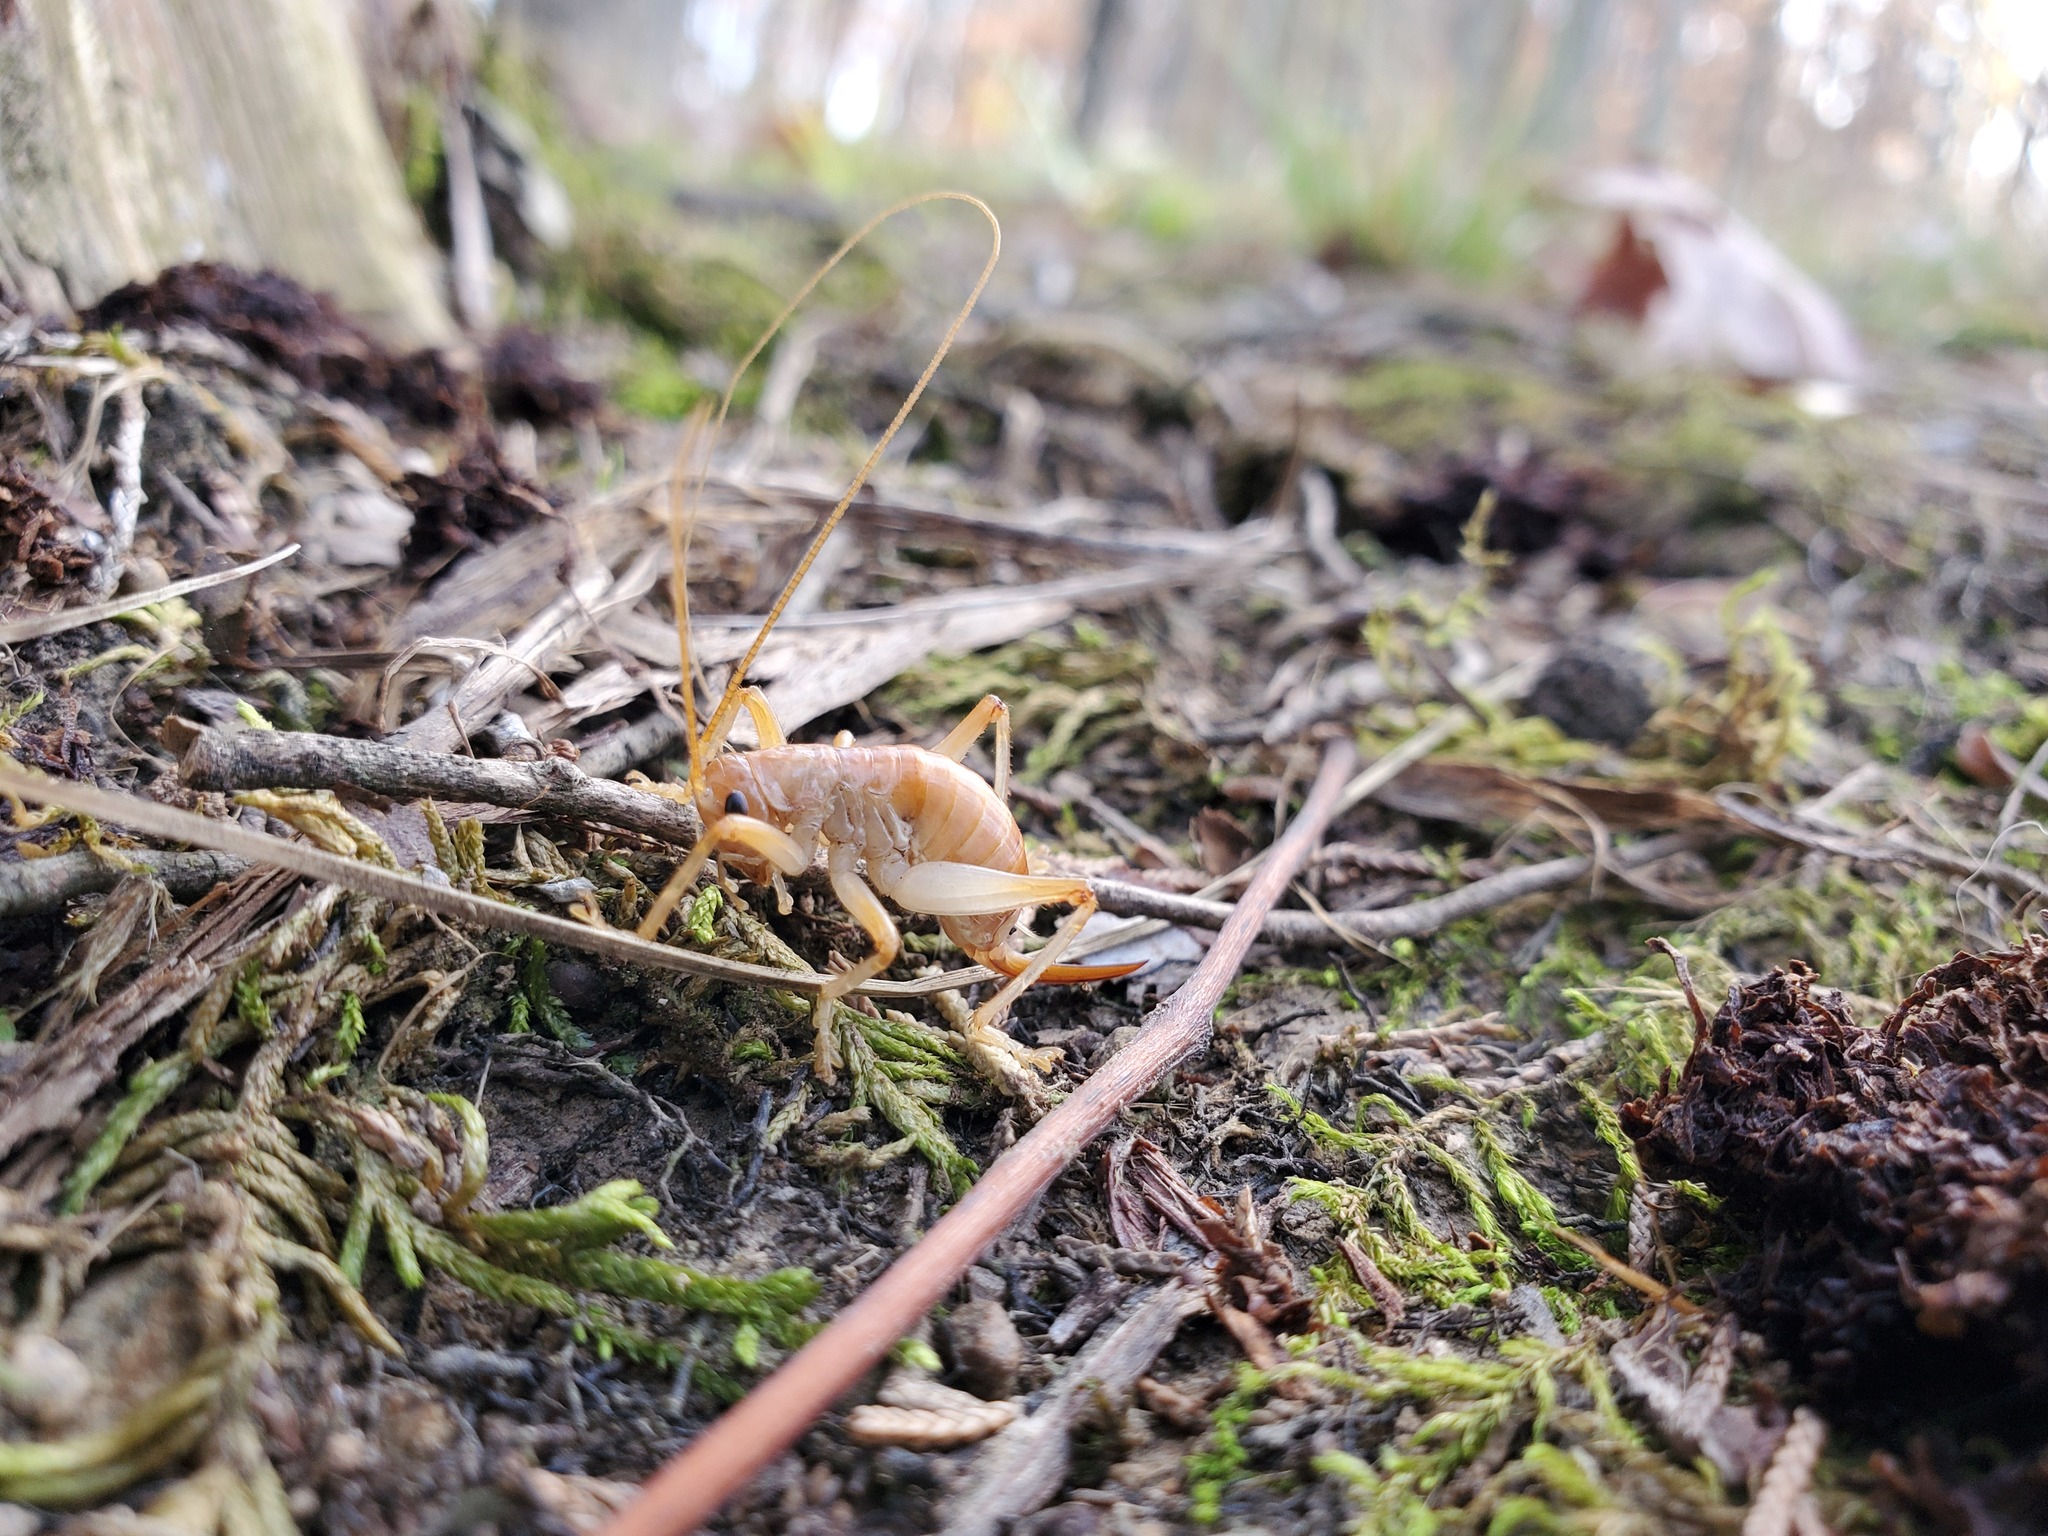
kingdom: Animalia
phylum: Arthropoda
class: Insecta
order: Orthoptera
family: Gryllacrididae
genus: Camptonotus
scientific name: Camptonotus carolinensis
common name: Carolina leaf-roller
